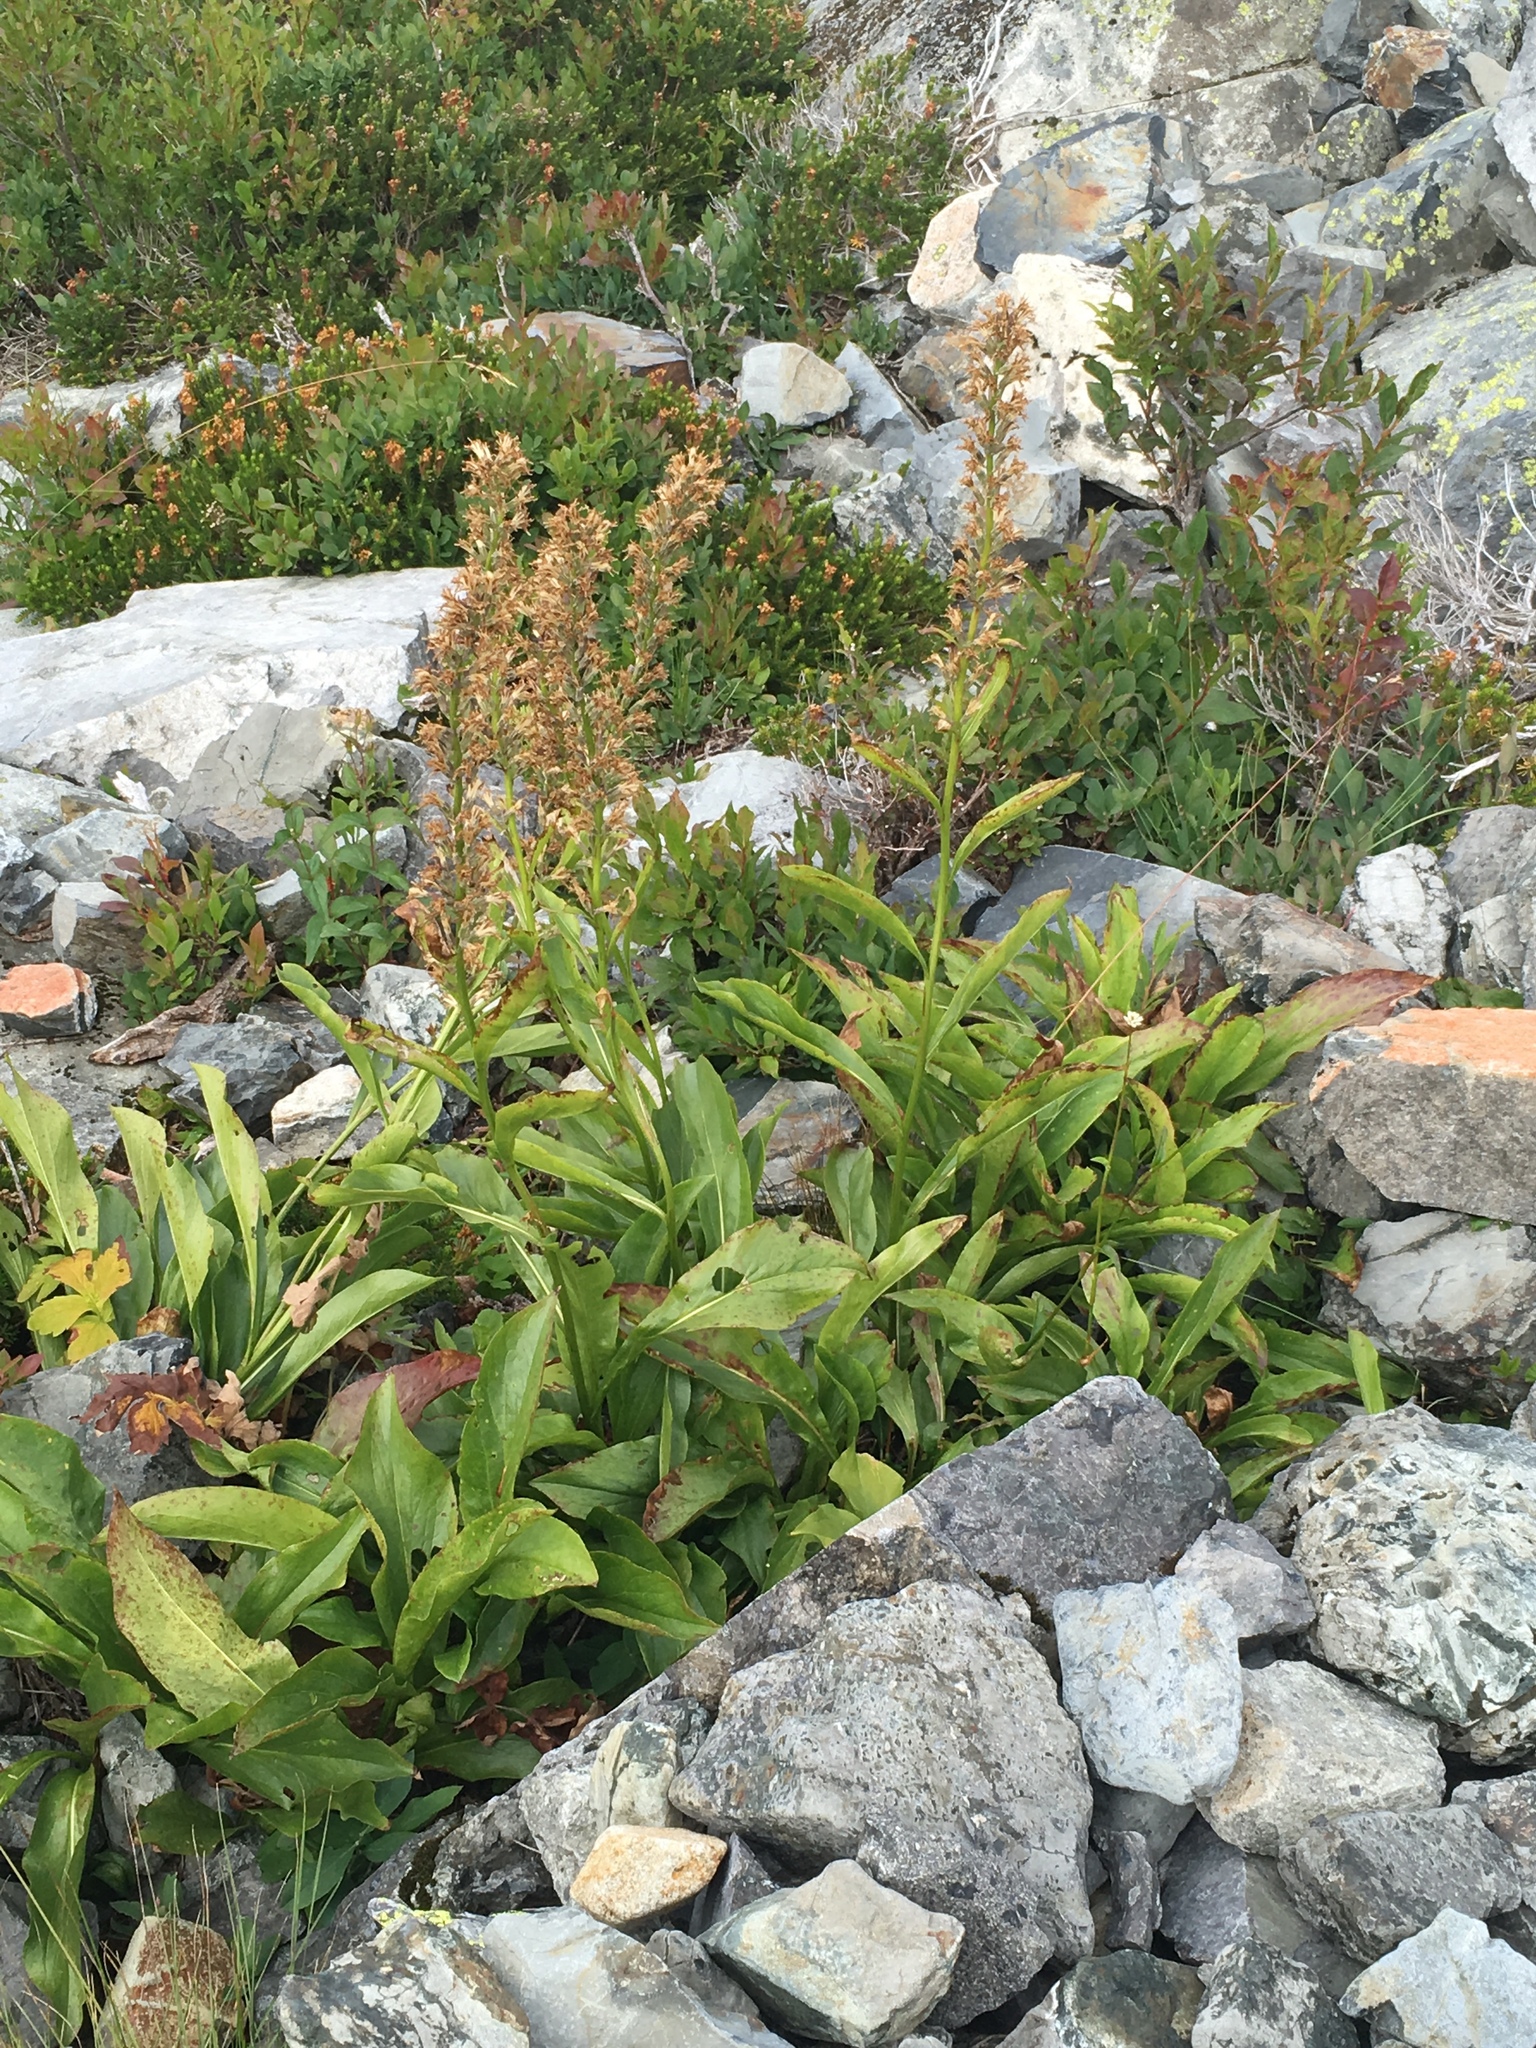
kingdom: Plantae
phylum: Tracheophyta
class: Magnoliopsida
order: Asterales
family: Asteraceae
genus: Rainiera
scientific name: Rainiera stricta
